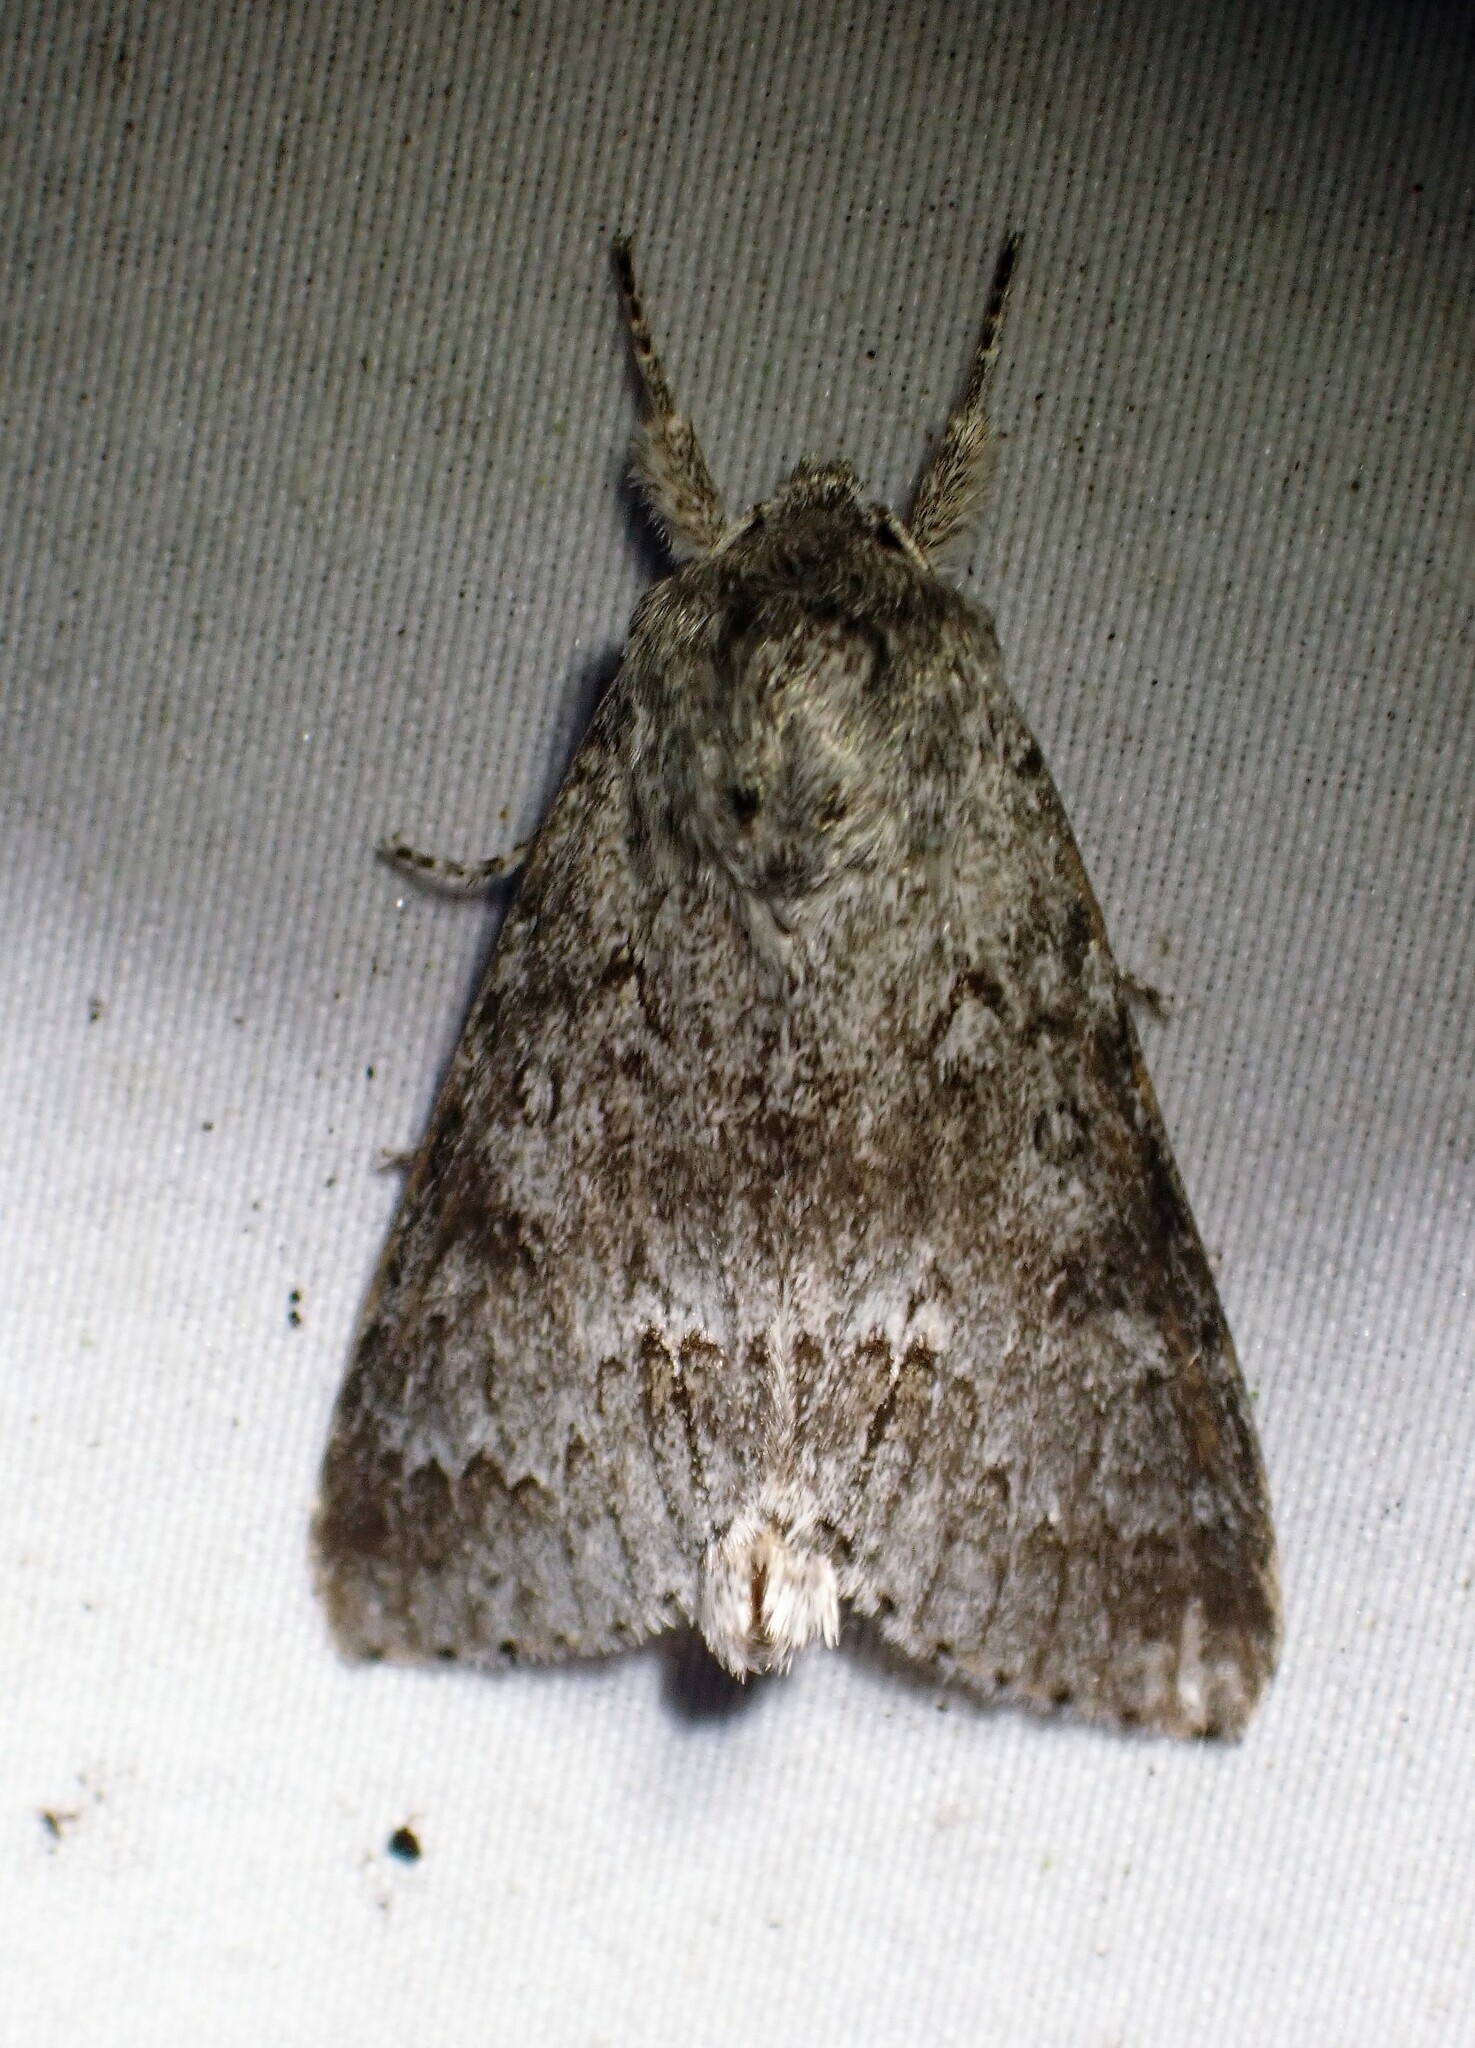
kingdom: Animalia
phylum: Arthropoda
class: Insecta
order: Lepidoptera
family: Noctuidae
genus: Acronicta
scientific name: Acronicta insita
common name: Large gray dagger
